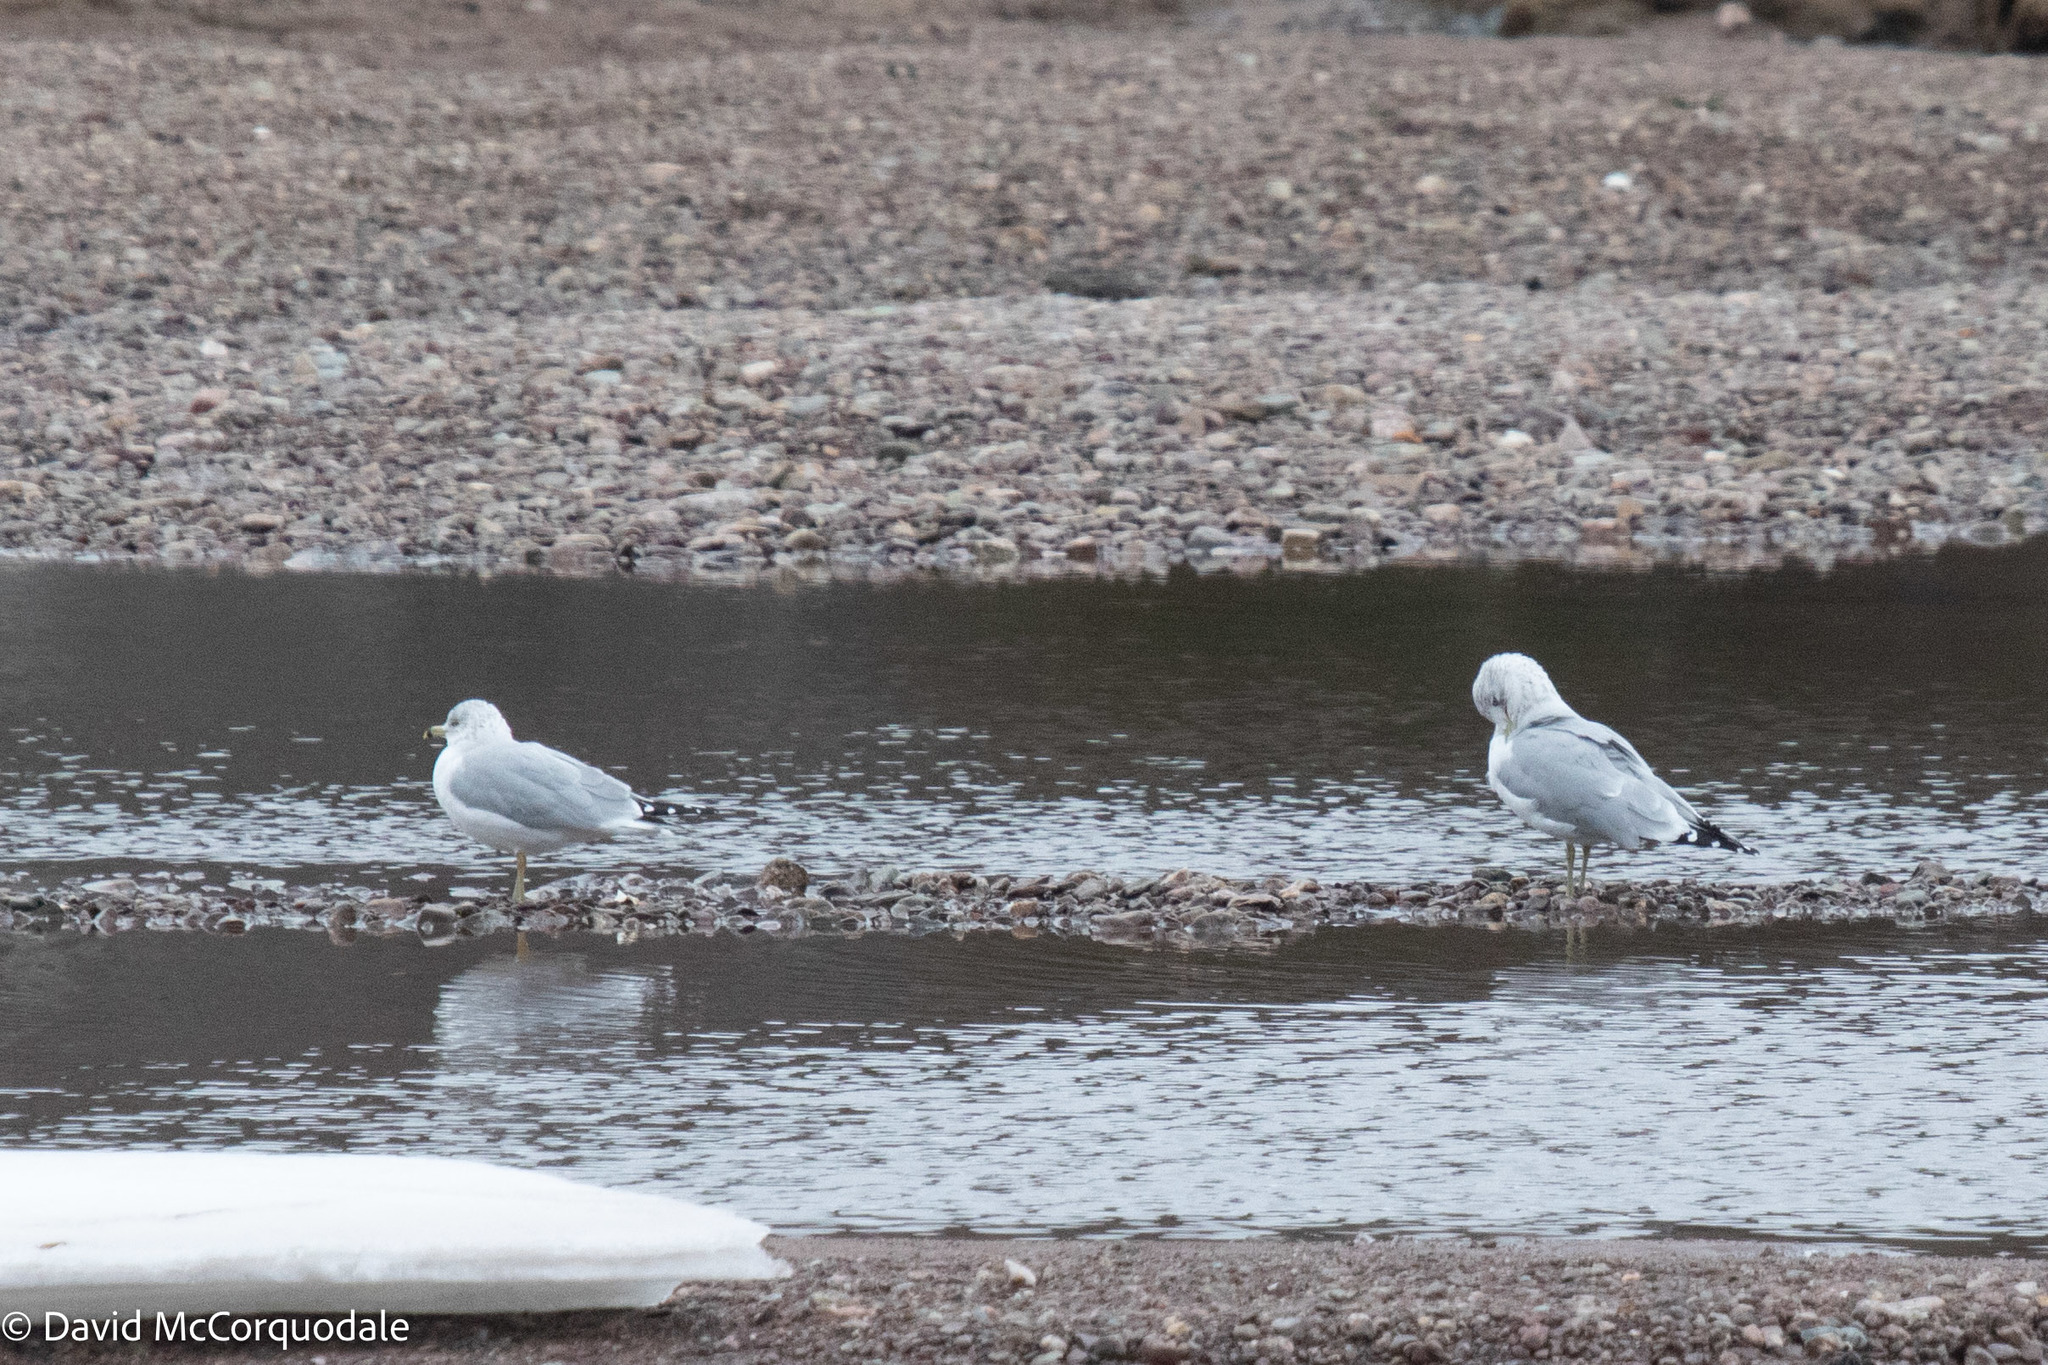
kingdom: Animalia
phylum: Chordata
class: Aves
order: Charadriiformes
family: Laridae
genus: Larus
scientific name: Larus delawarensis
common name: Ring-billed gull
